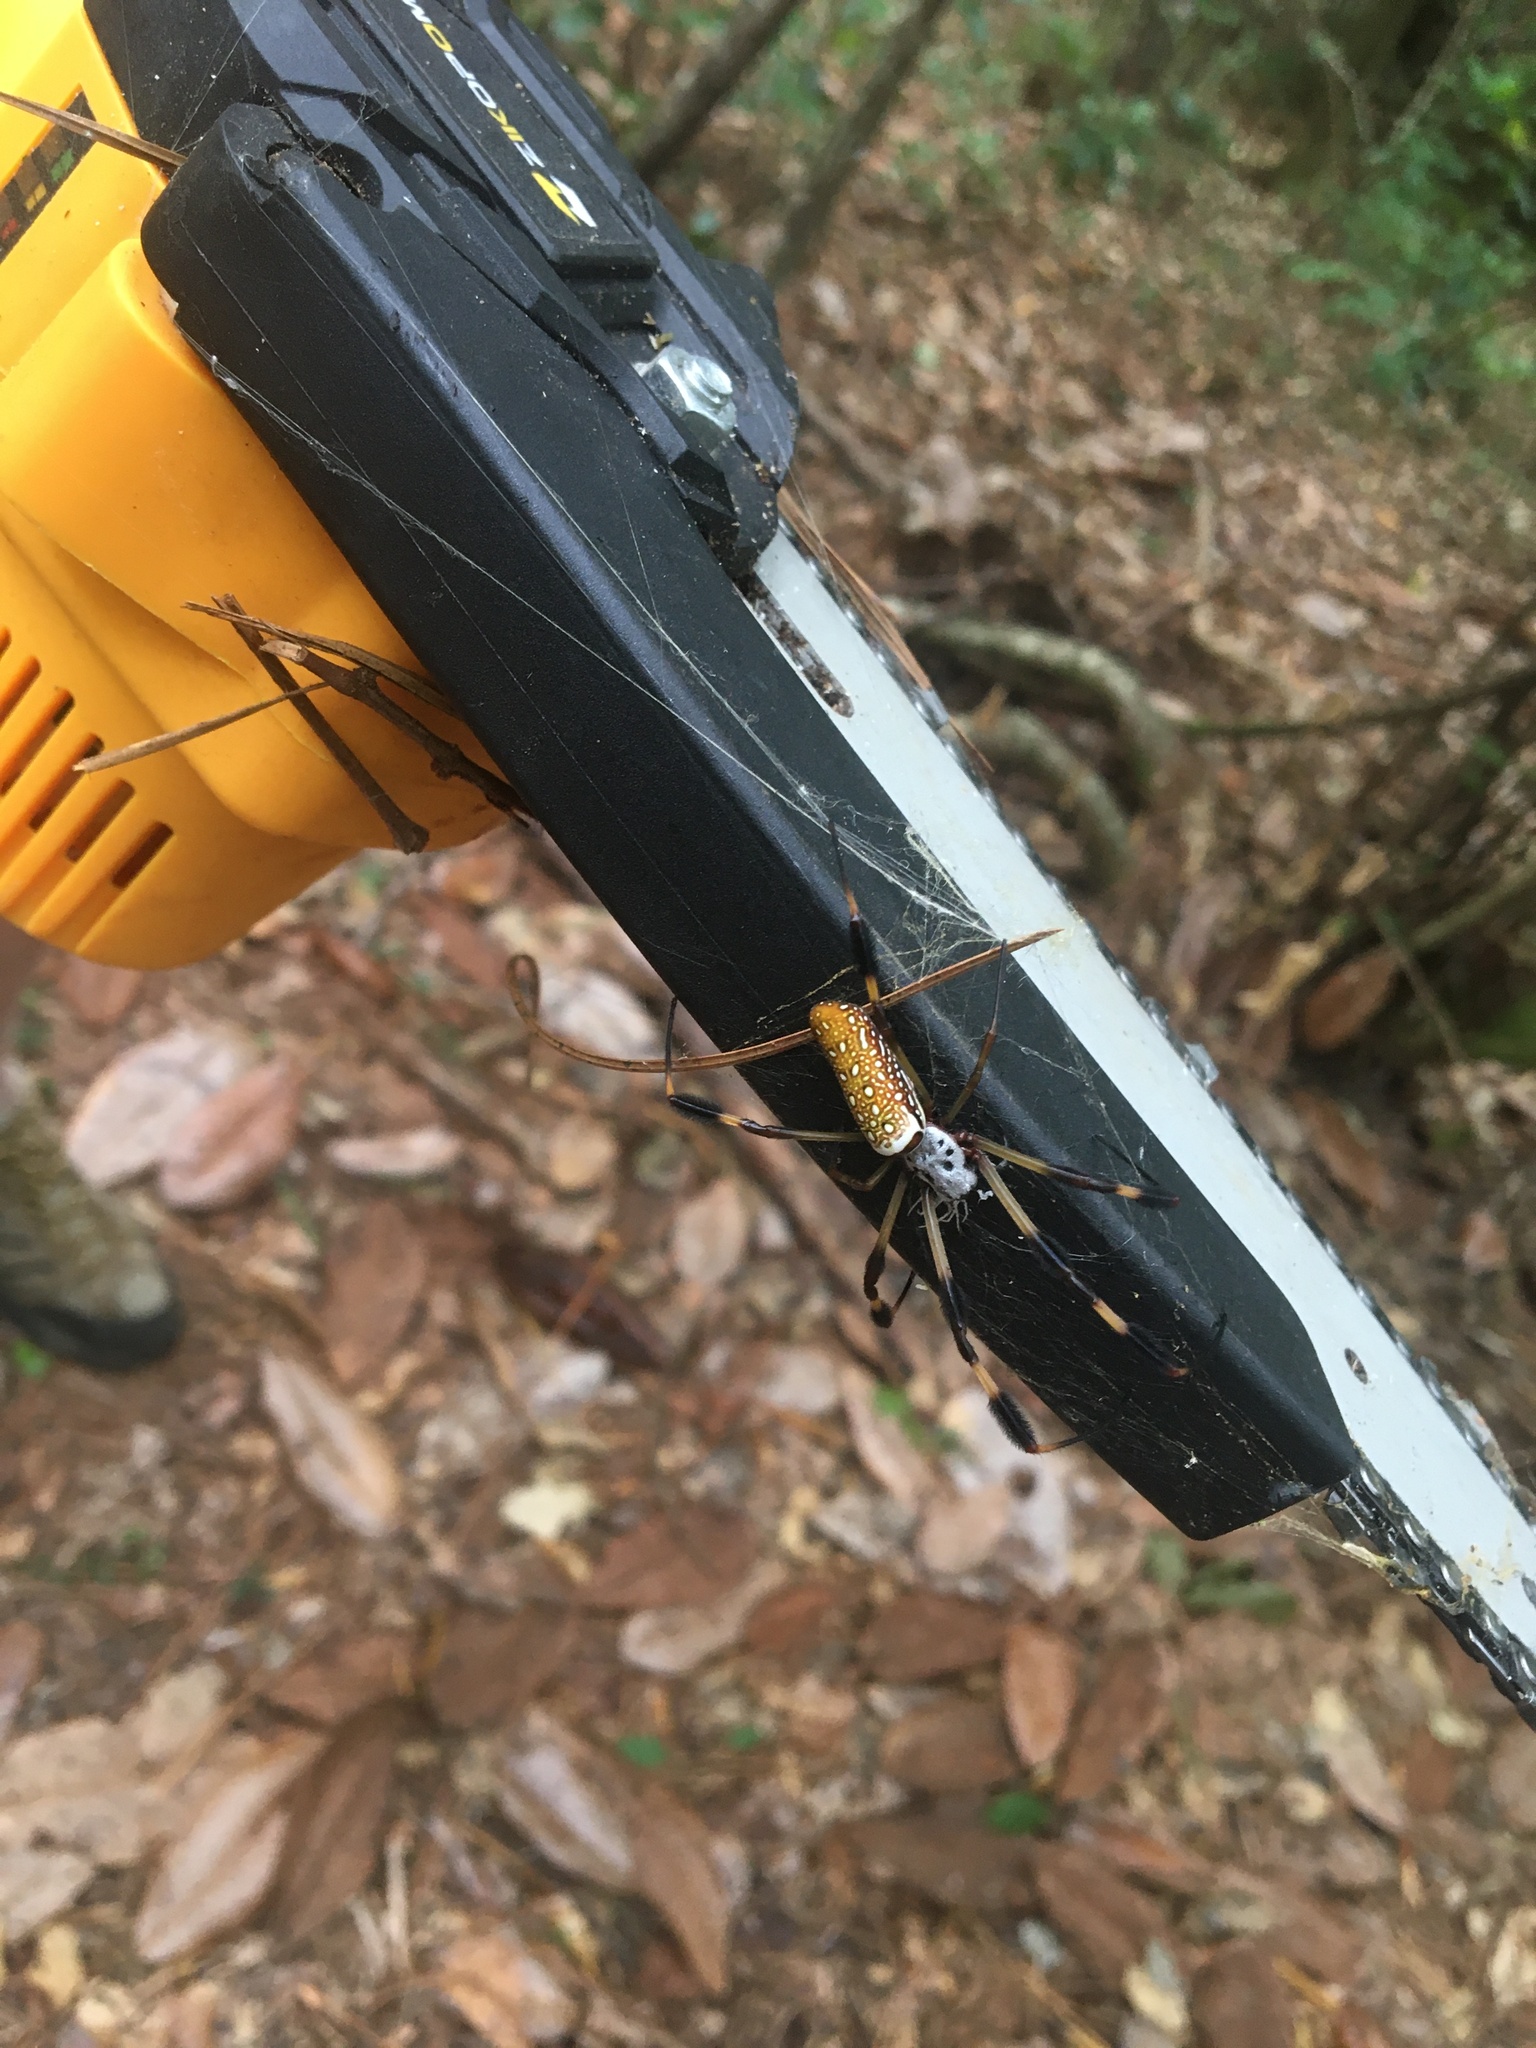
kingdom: Animalia
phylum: Arthropoda
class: Arachnida
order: Araneae
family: Araneidae
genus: Trichonephila
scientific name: Trichonephila clavipes
